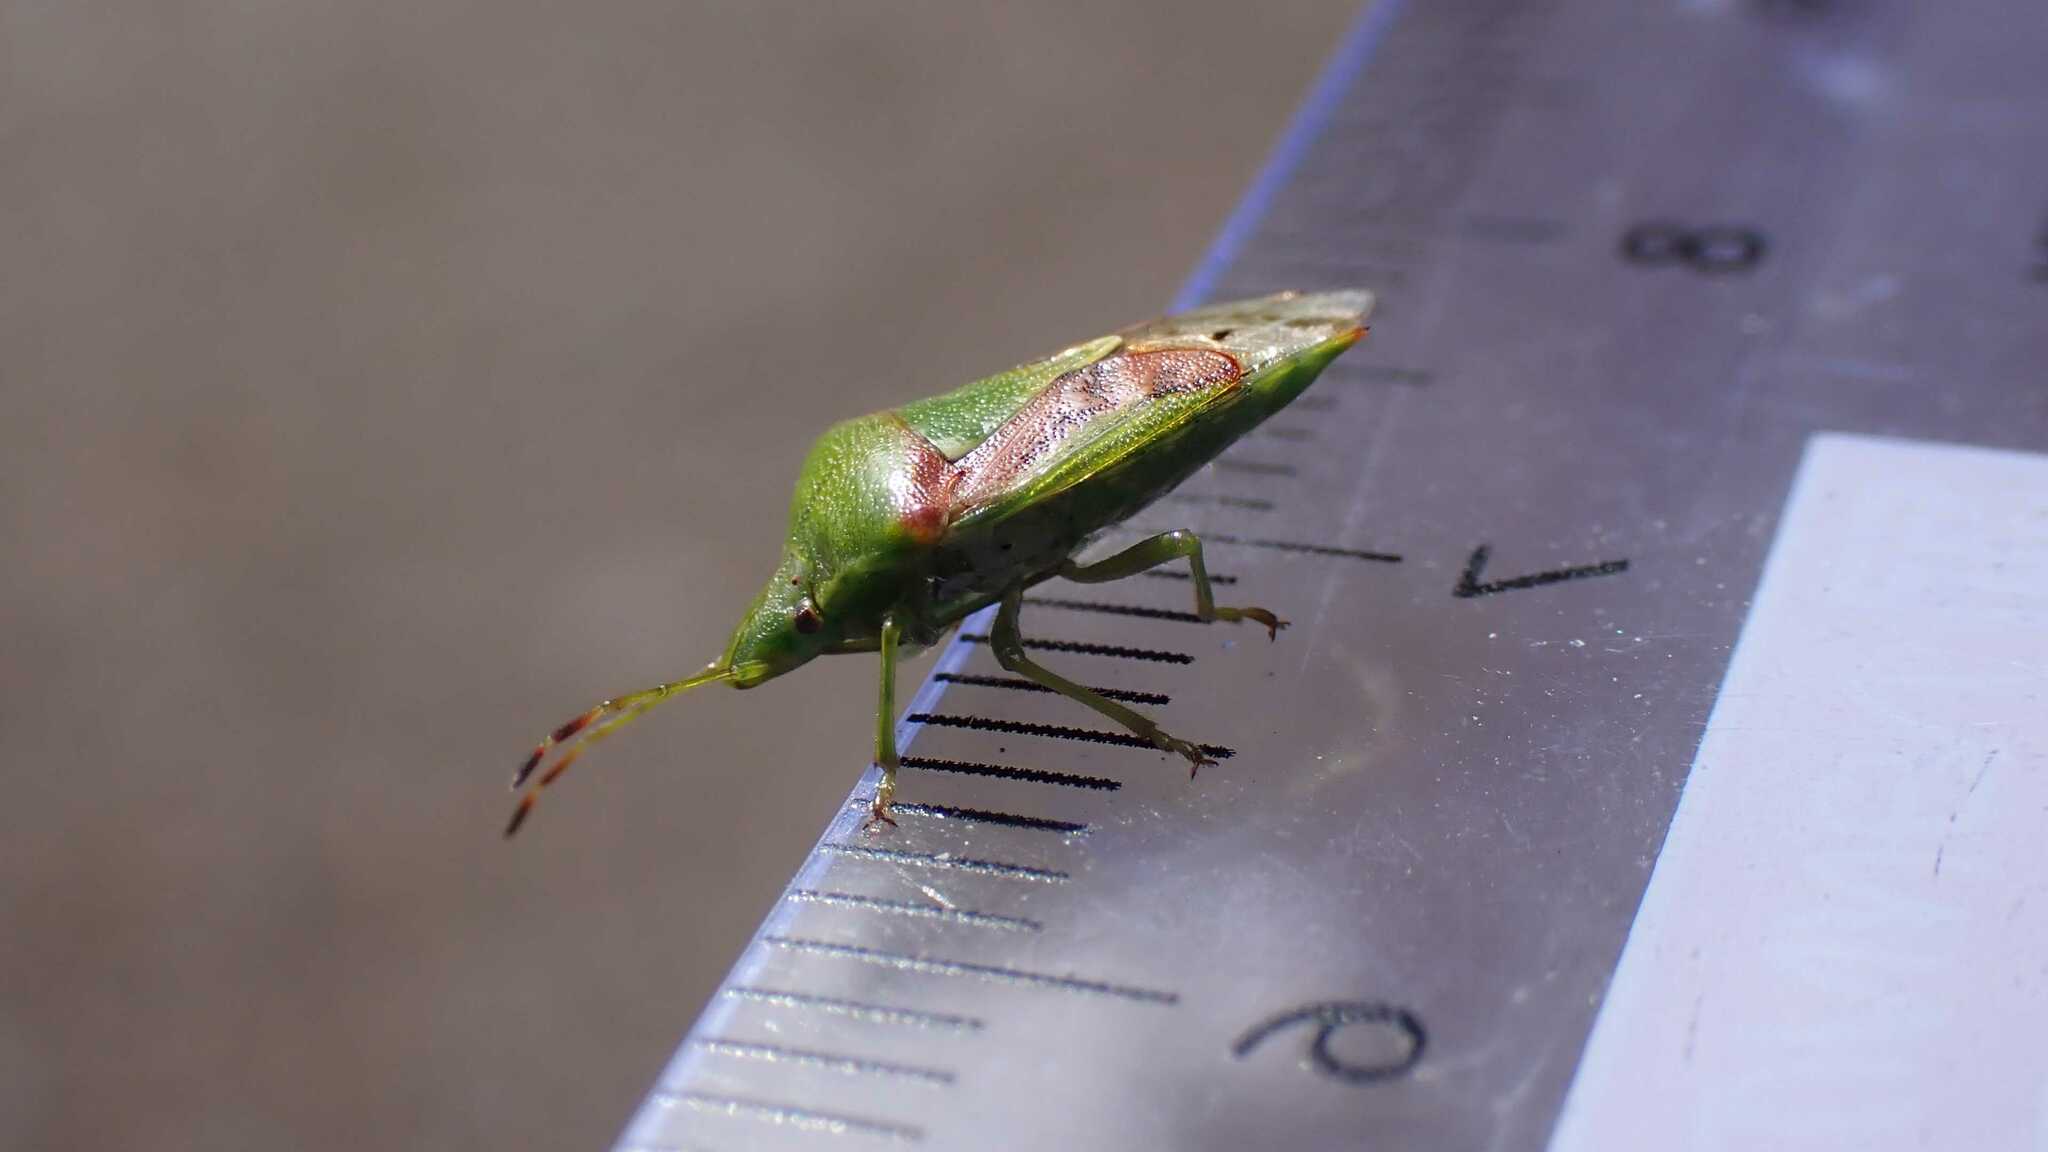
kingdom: Animalia
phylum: Arthropoda
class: Insecta
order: Hemiptera
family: Acanthosomatidae
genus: Cyphostethus
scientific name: Cyphostethus tristriatus
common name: Juniper shieldbug
